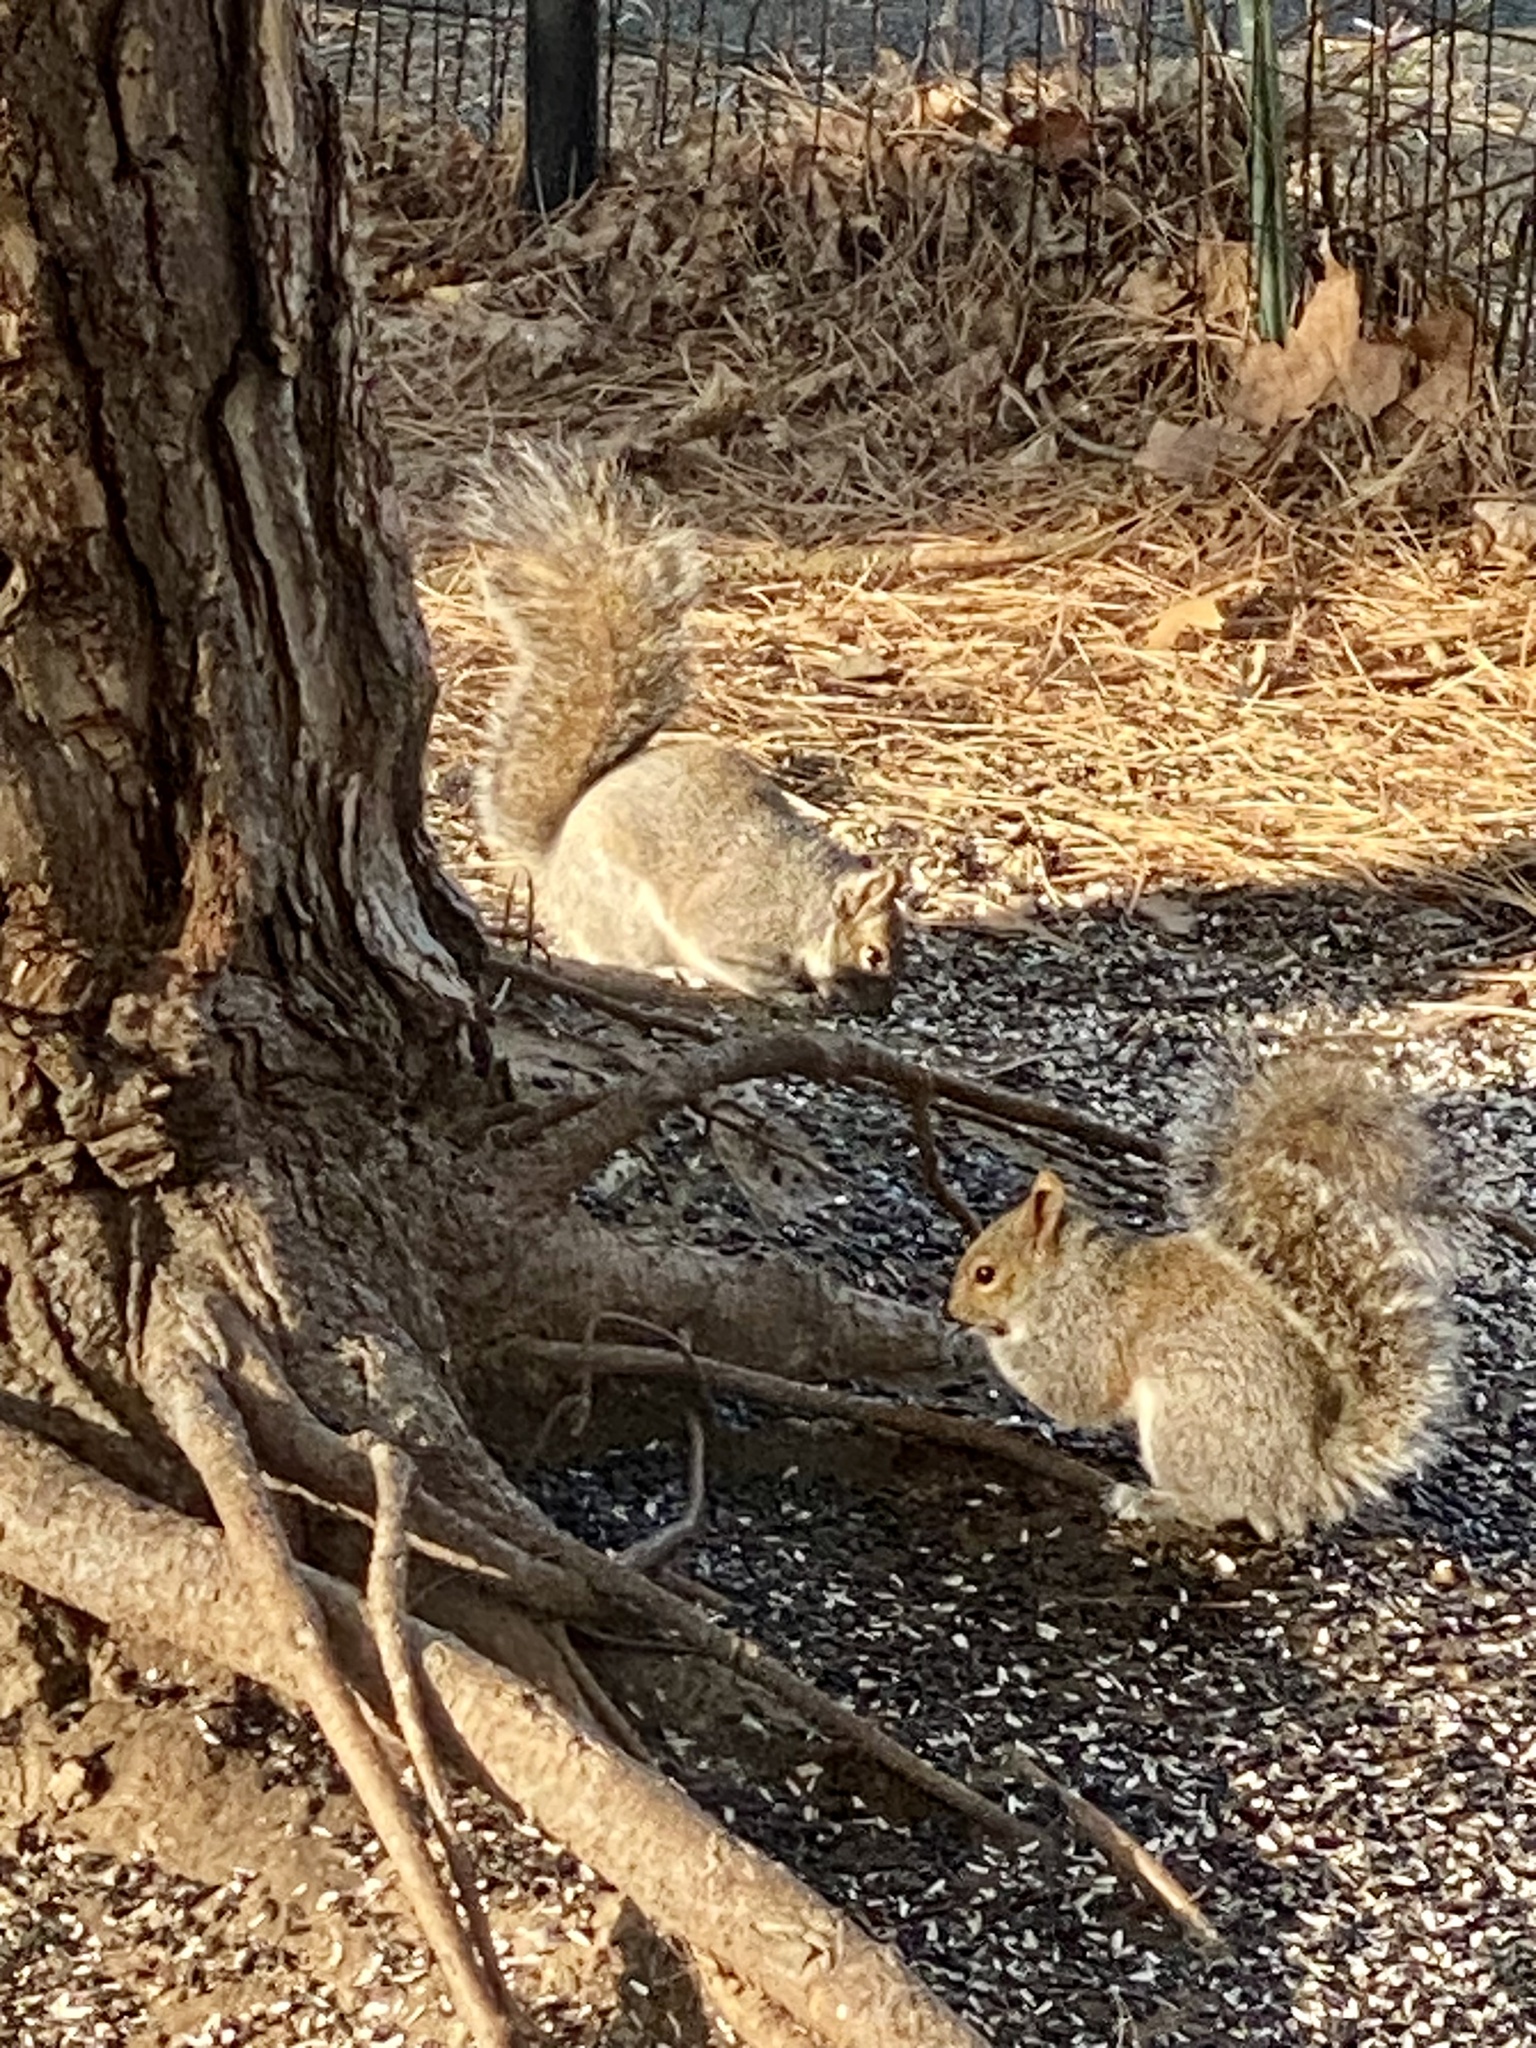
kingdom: Animalia
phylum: Chordata
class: Mammalia
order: Rodentia
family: Sciuridae
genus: Sciurus
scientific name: Sciurus carolinensis
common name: Eastern gray squirrel
